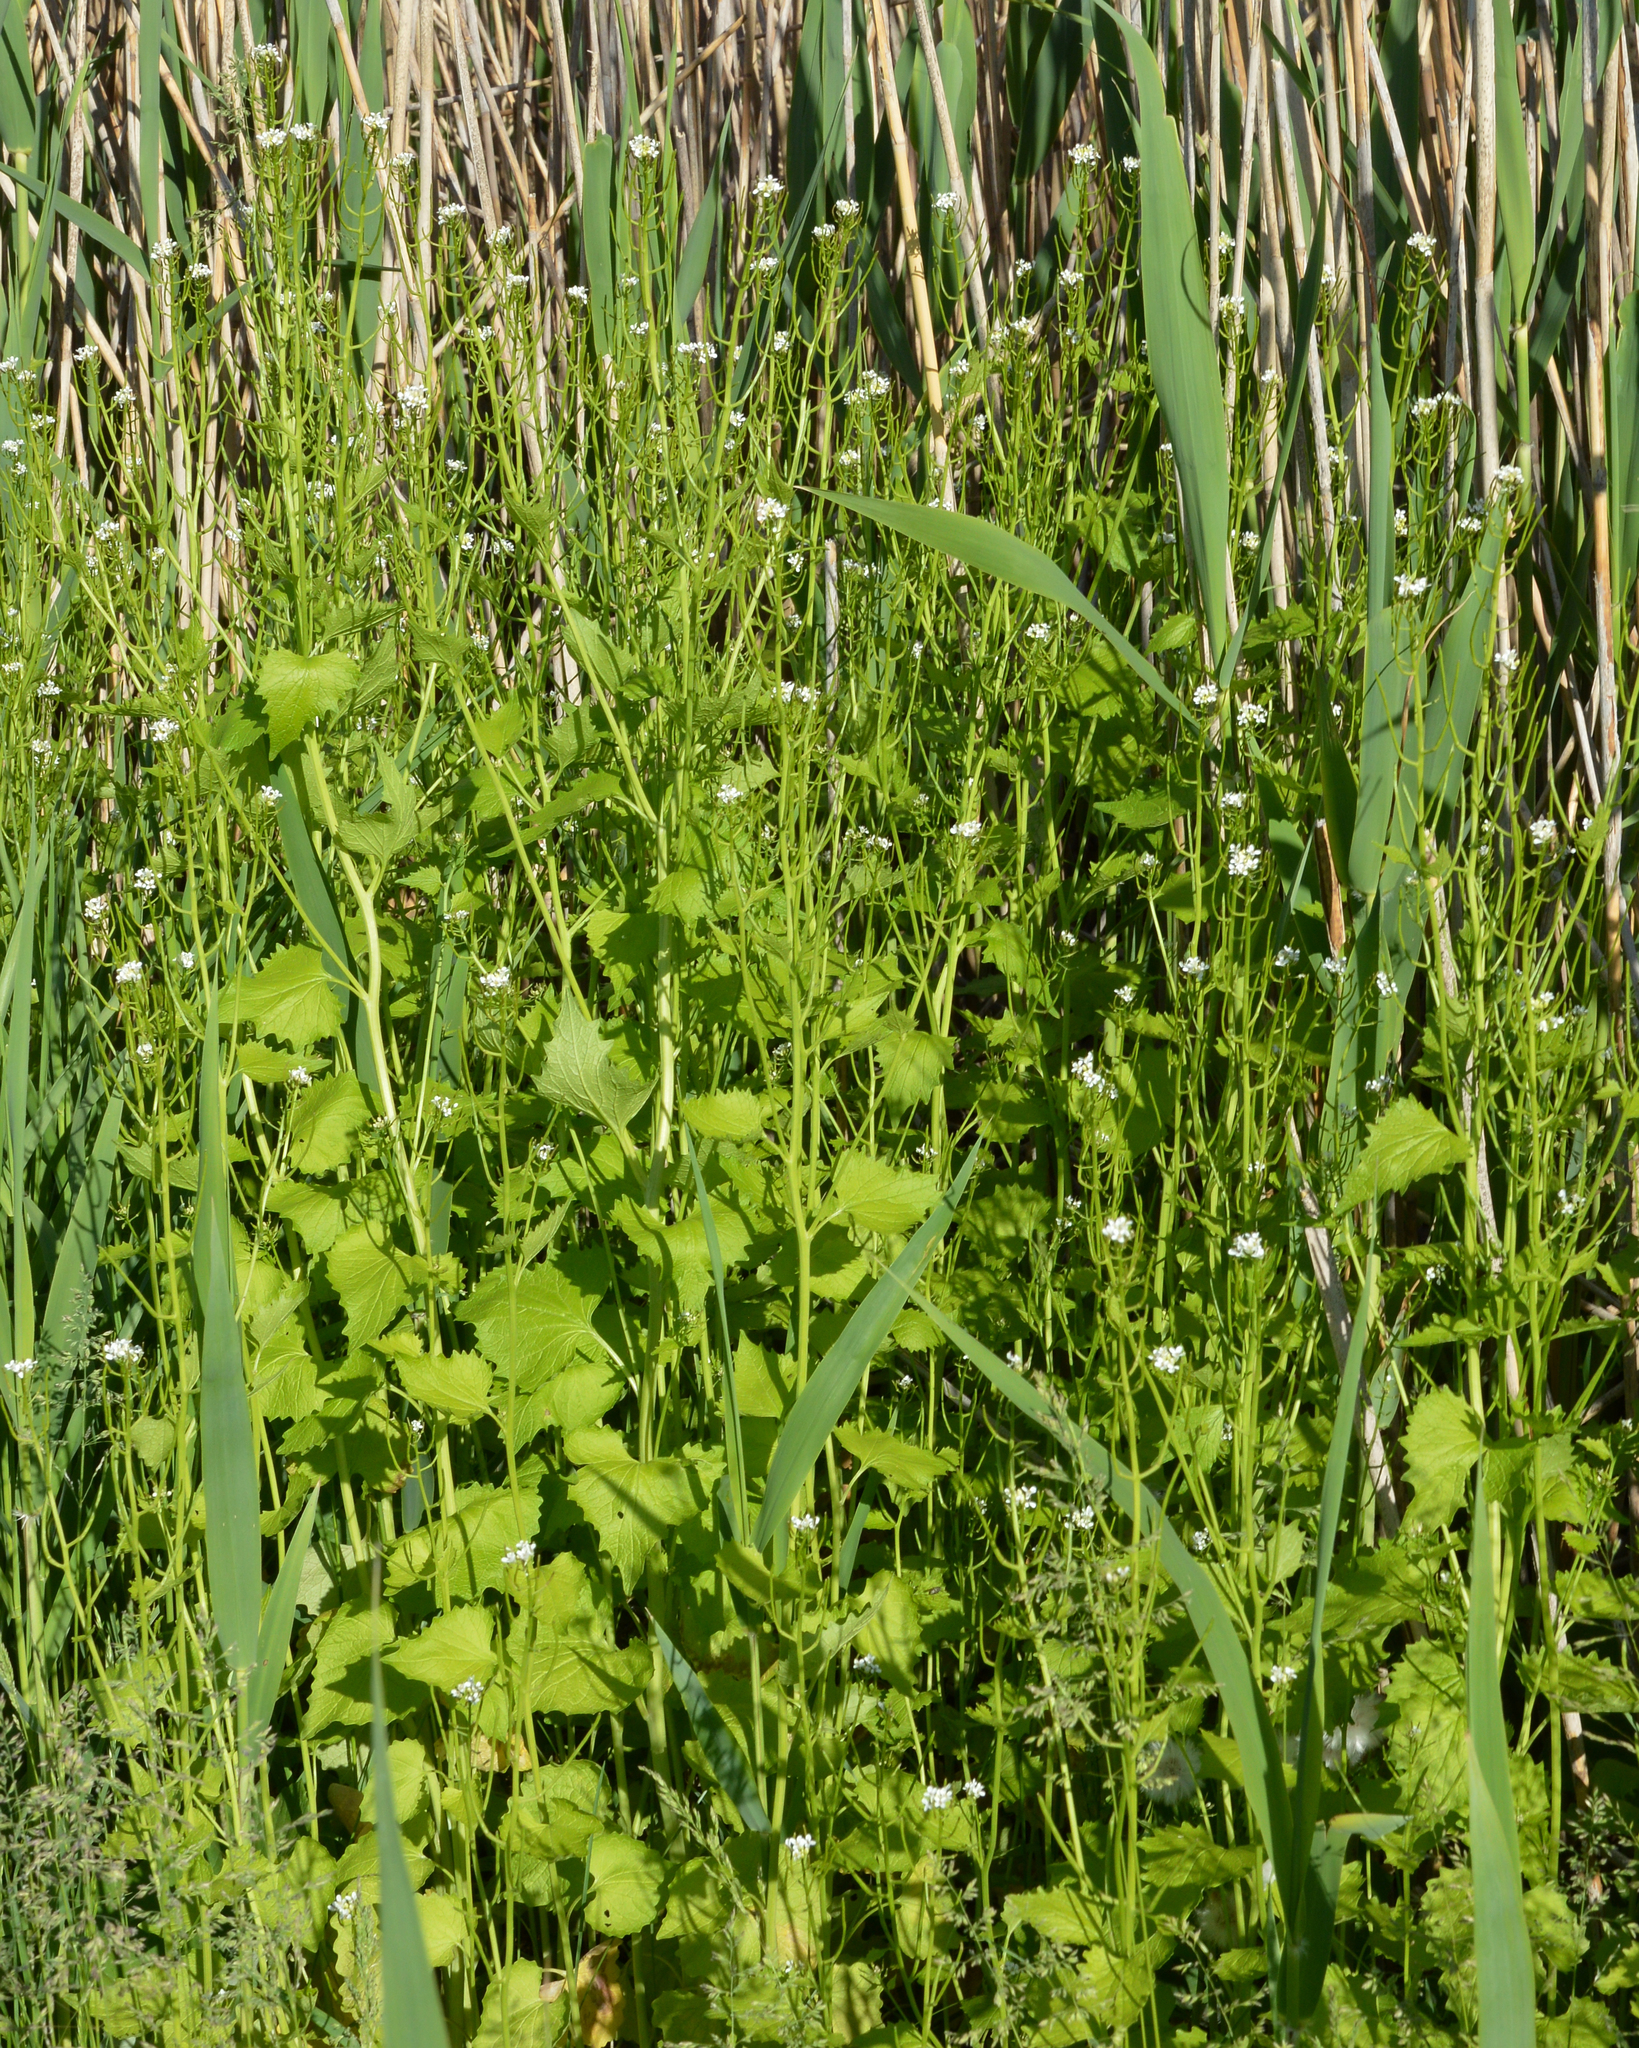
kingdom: Plantae
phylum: Tracheophyta
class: Magnoliopsida
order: Brassicales
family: Brassicaceae
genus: Alliaria
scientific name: Alliaria petiolata
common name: Garlic mustard
